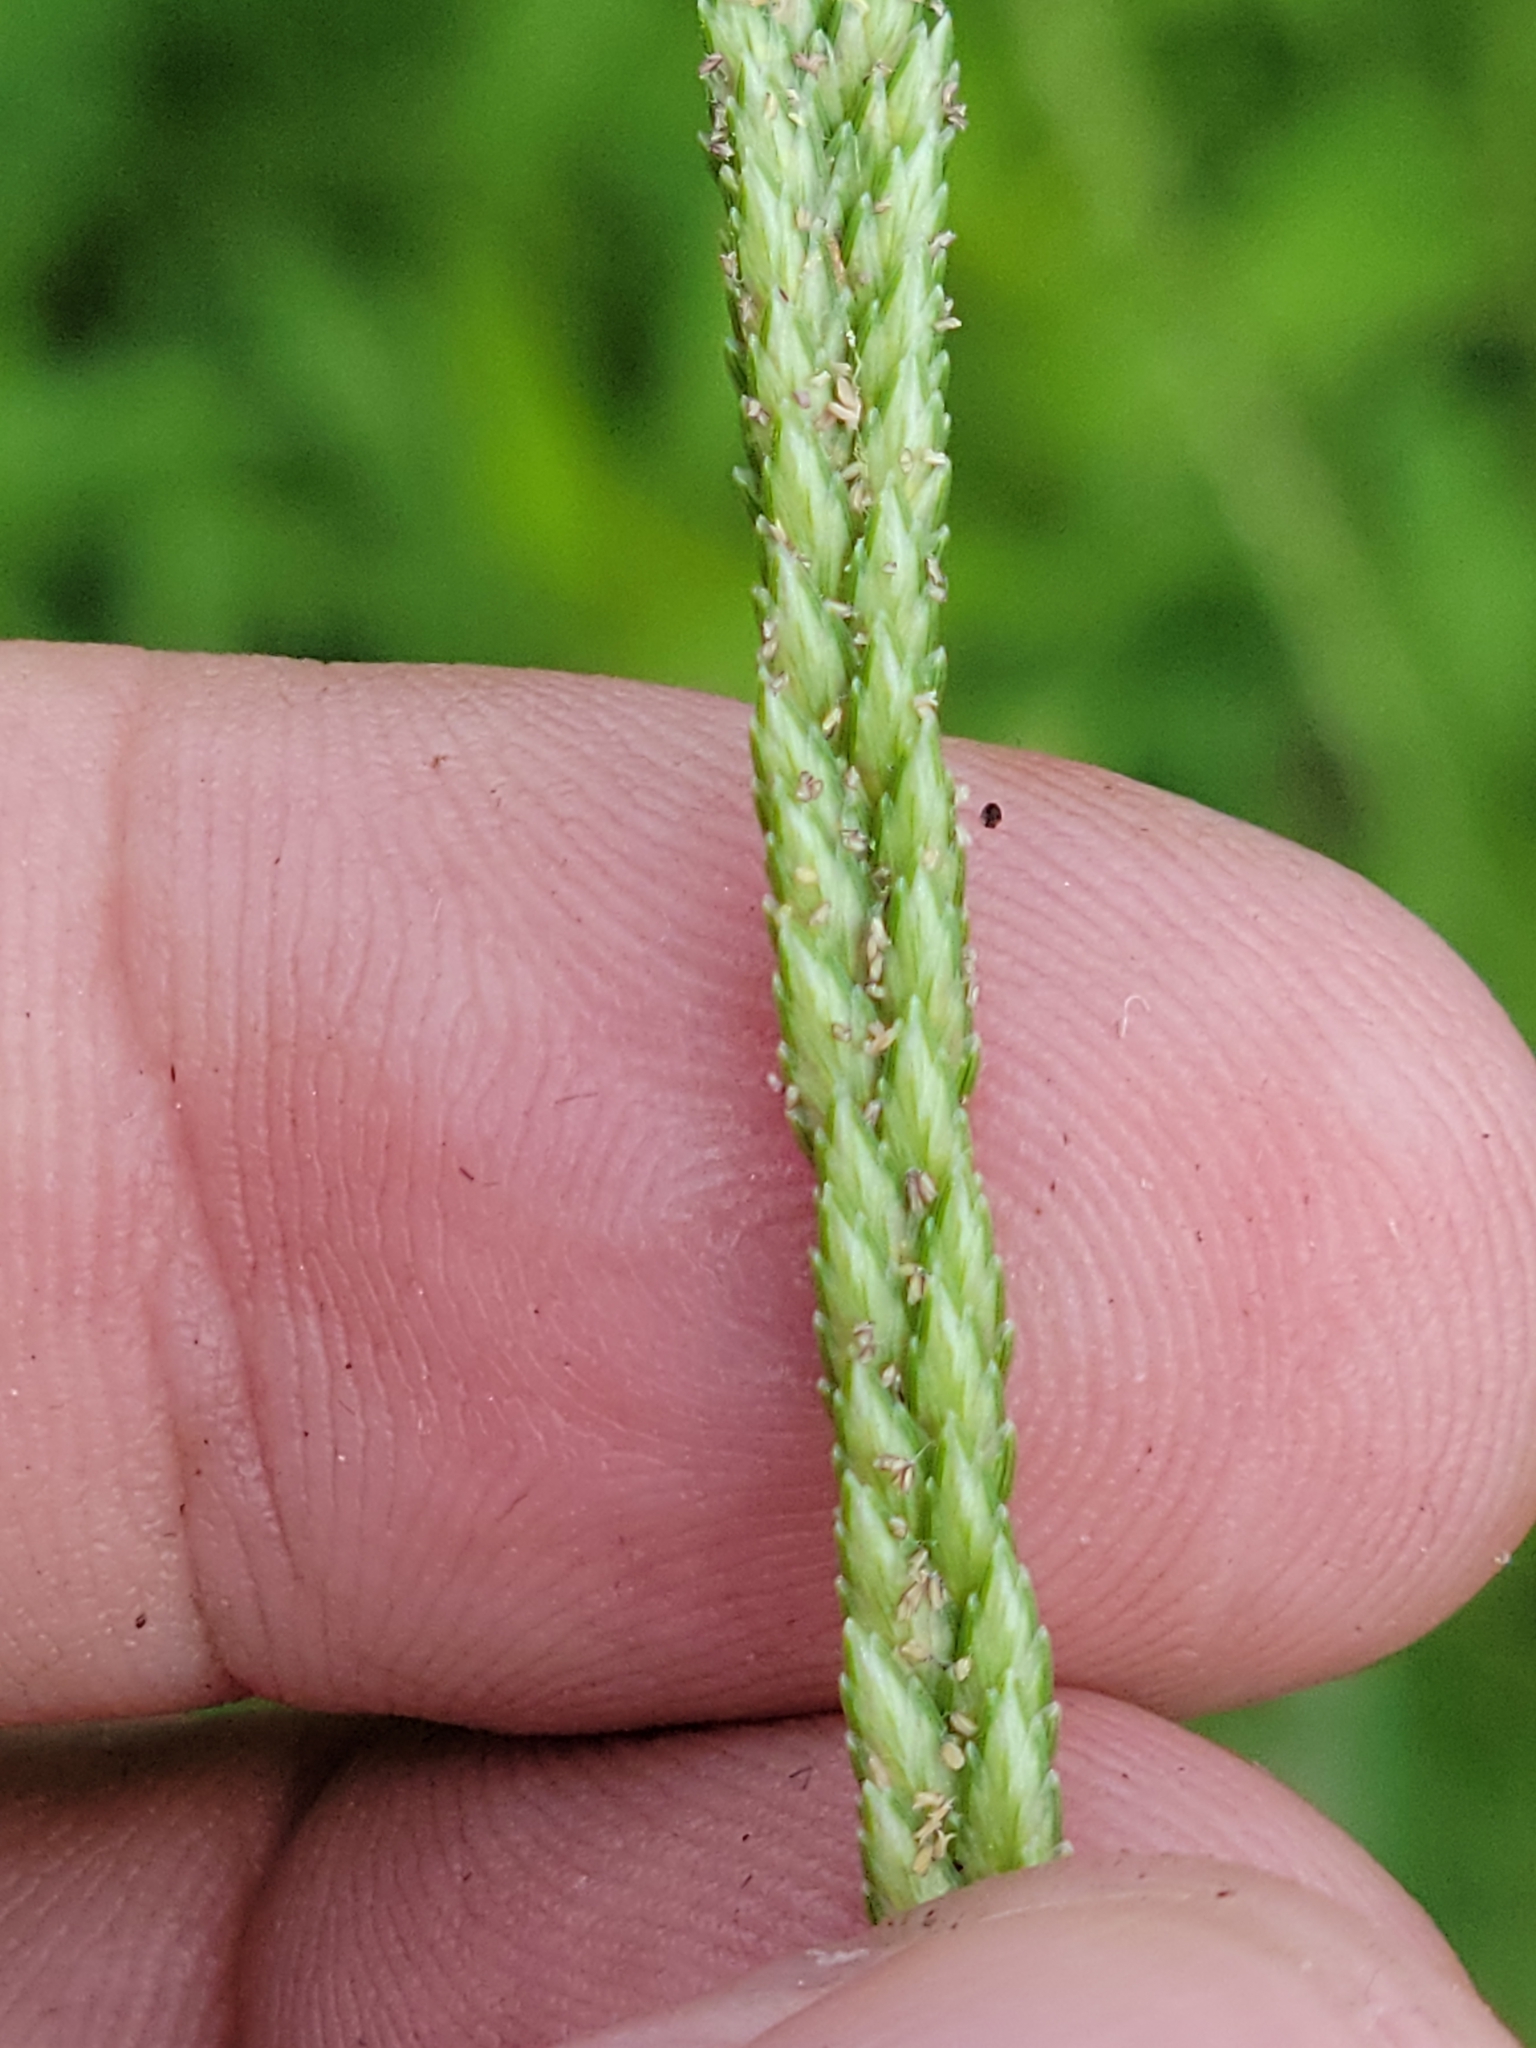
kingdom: Plantae
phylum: Tracheophyta
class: Liliopsida
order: Poales
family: Poaceae
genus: Eleusine
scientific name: Eleusine indica
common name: Yard-grass
